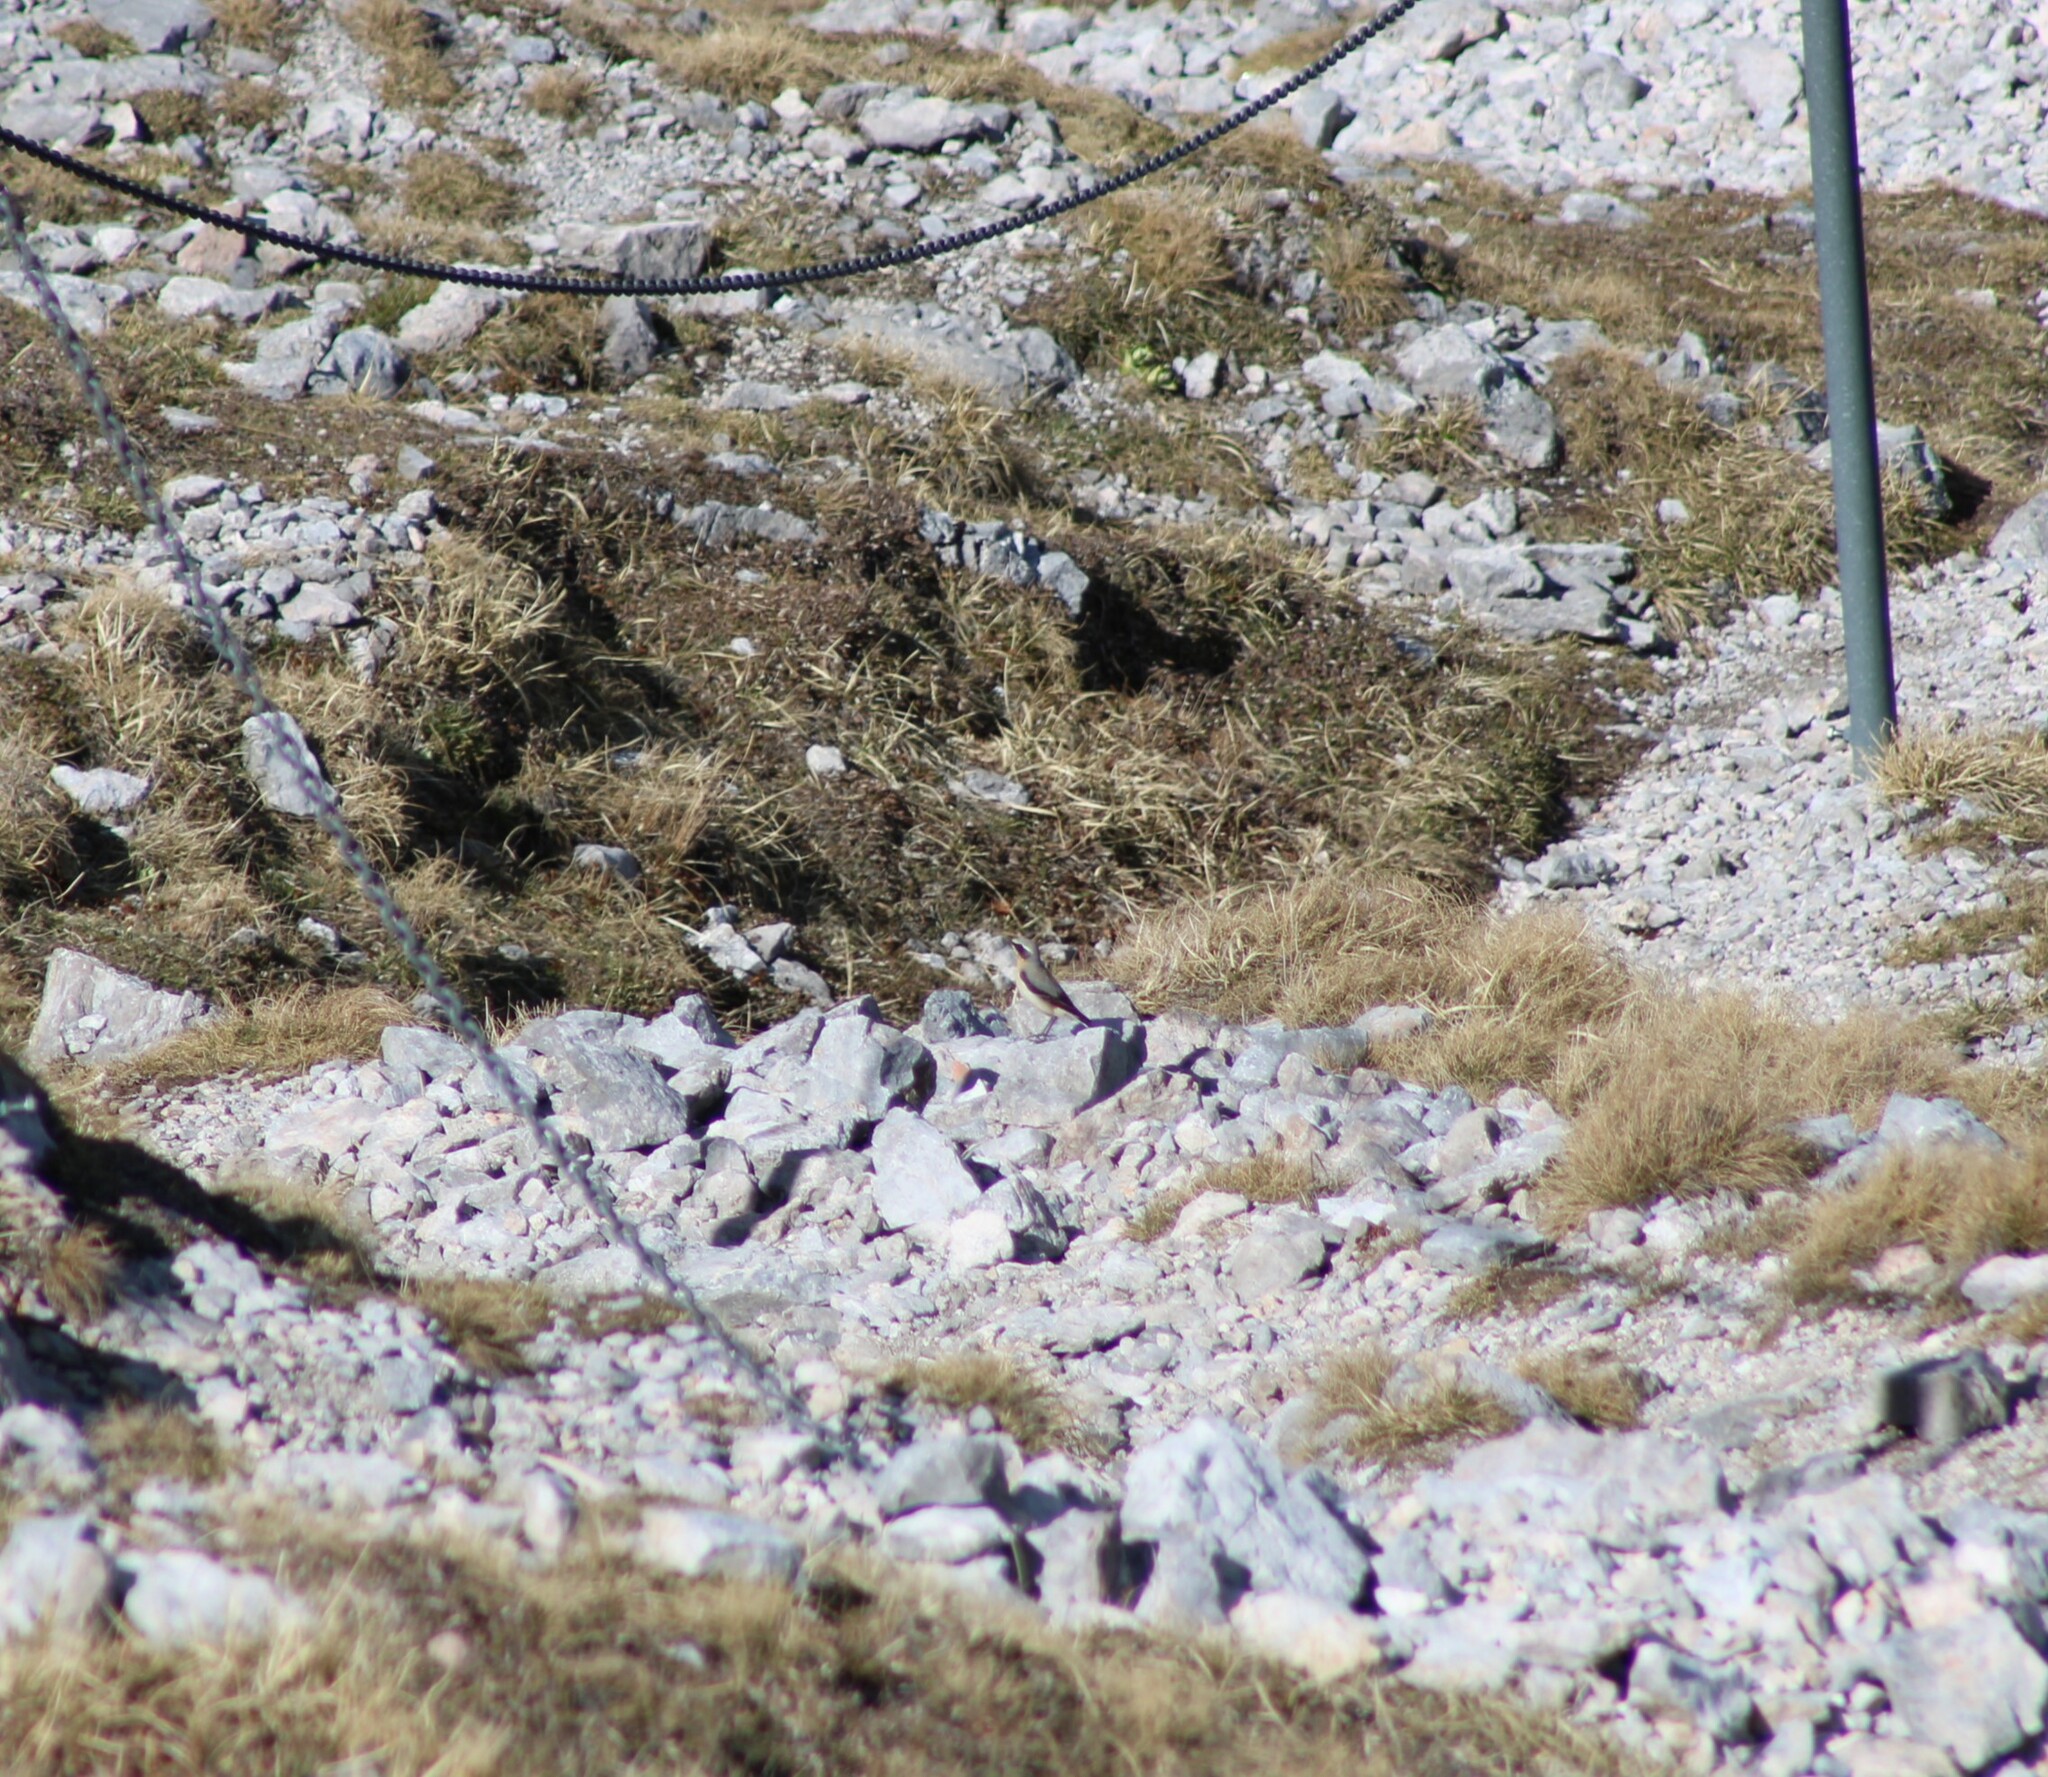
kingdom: Animalia
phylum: Chordata
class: Aves
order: Passeriformes
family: Muscicapidae
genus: Oenanthe
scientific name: Oenanthe oenanthe
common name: Northern wheatear
